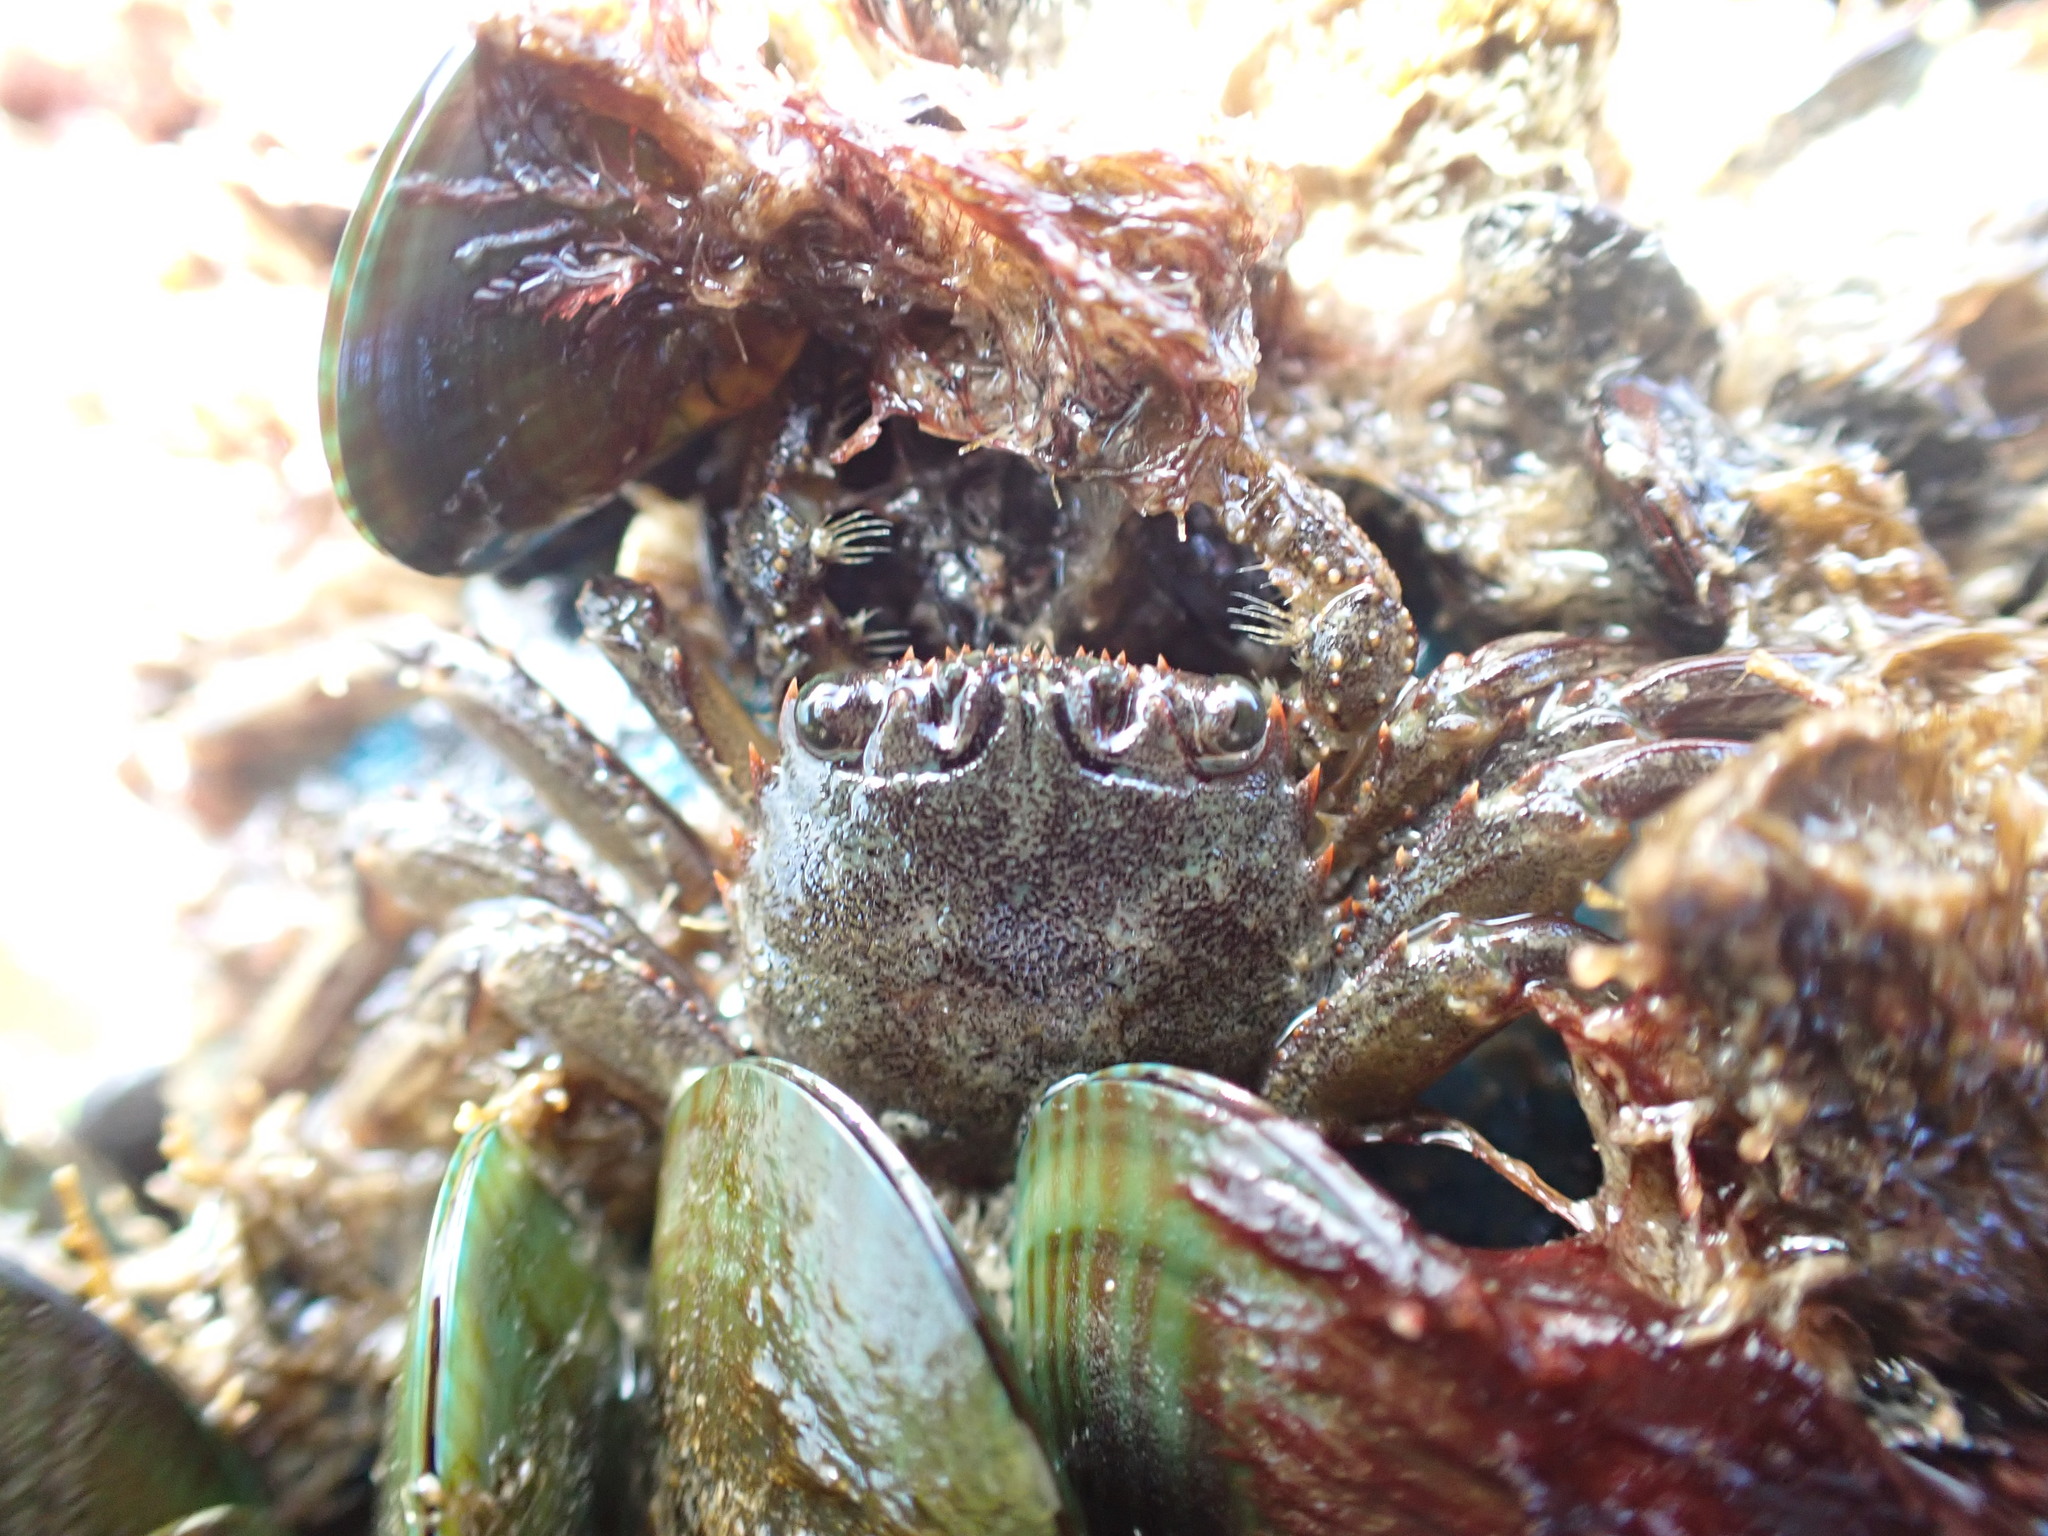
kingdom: Animalia
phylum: Arthropoda
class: Malacostraca
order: Decapoda
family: Plagusiidae
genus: Guinusia
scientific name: Guinusia chabrus
